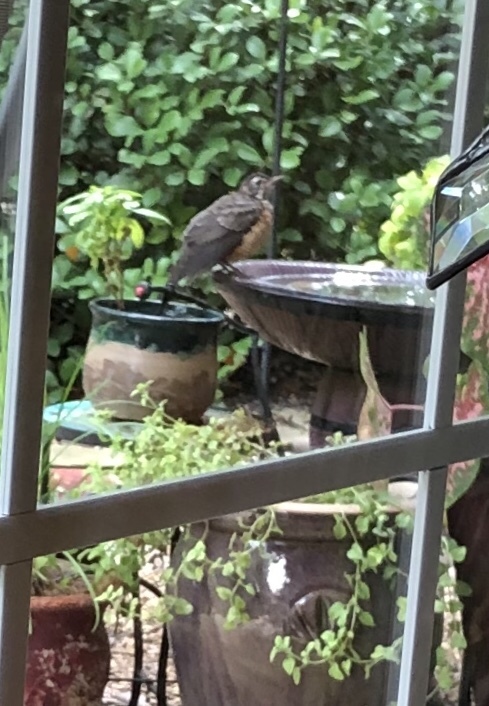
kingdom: Animalia
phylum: Chordata
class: Aves
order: Passeriformes
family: Turdidae
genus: Turdus
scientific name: Turdus migratorius
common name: American robin
